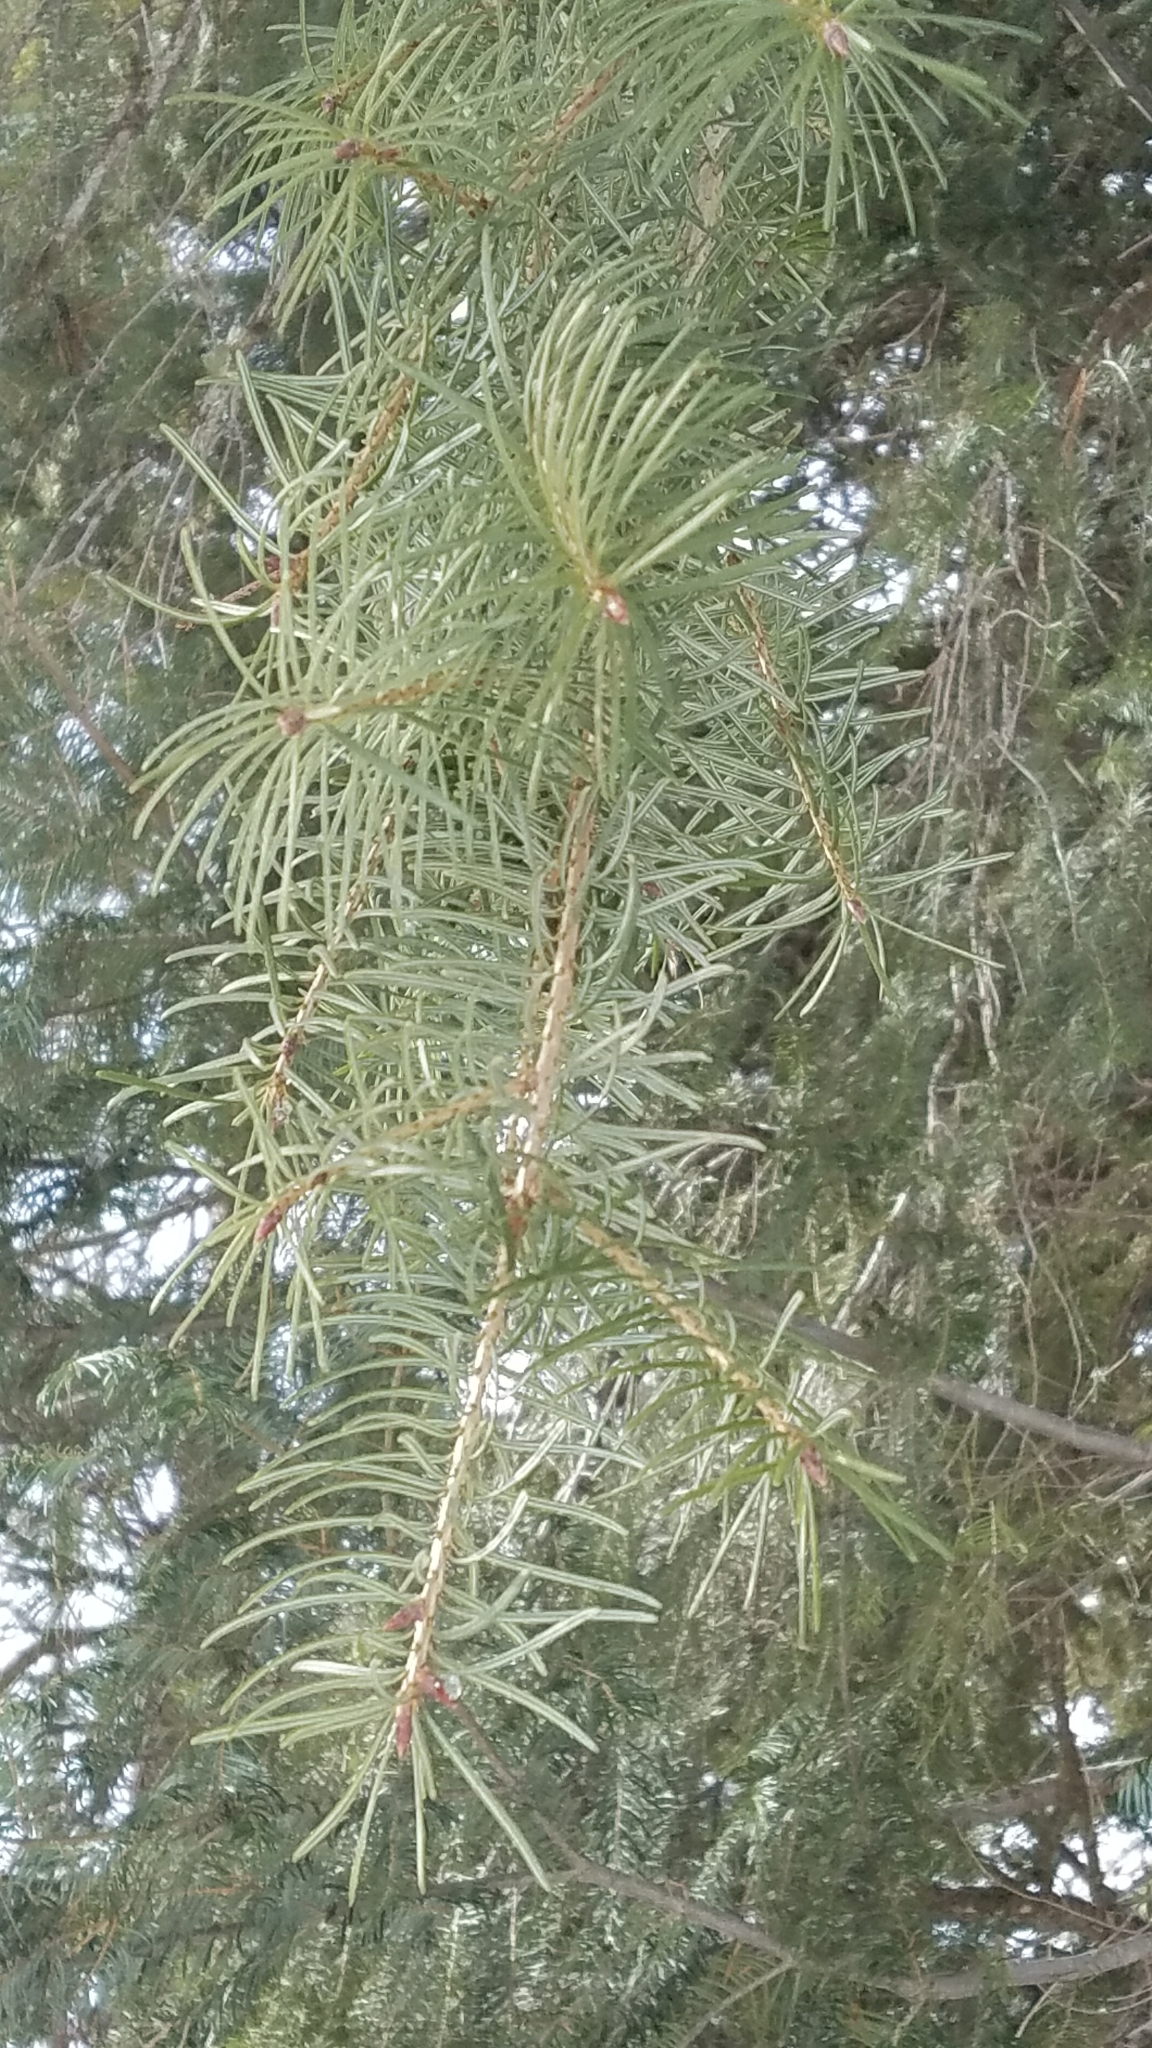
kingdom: Plantae
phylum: Tracheophyta
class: Pinopsida
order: Pinales
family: Pinaceae
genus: Pseudotsuga
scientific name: Pseudotsuga menziesii
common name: Douglas fir
